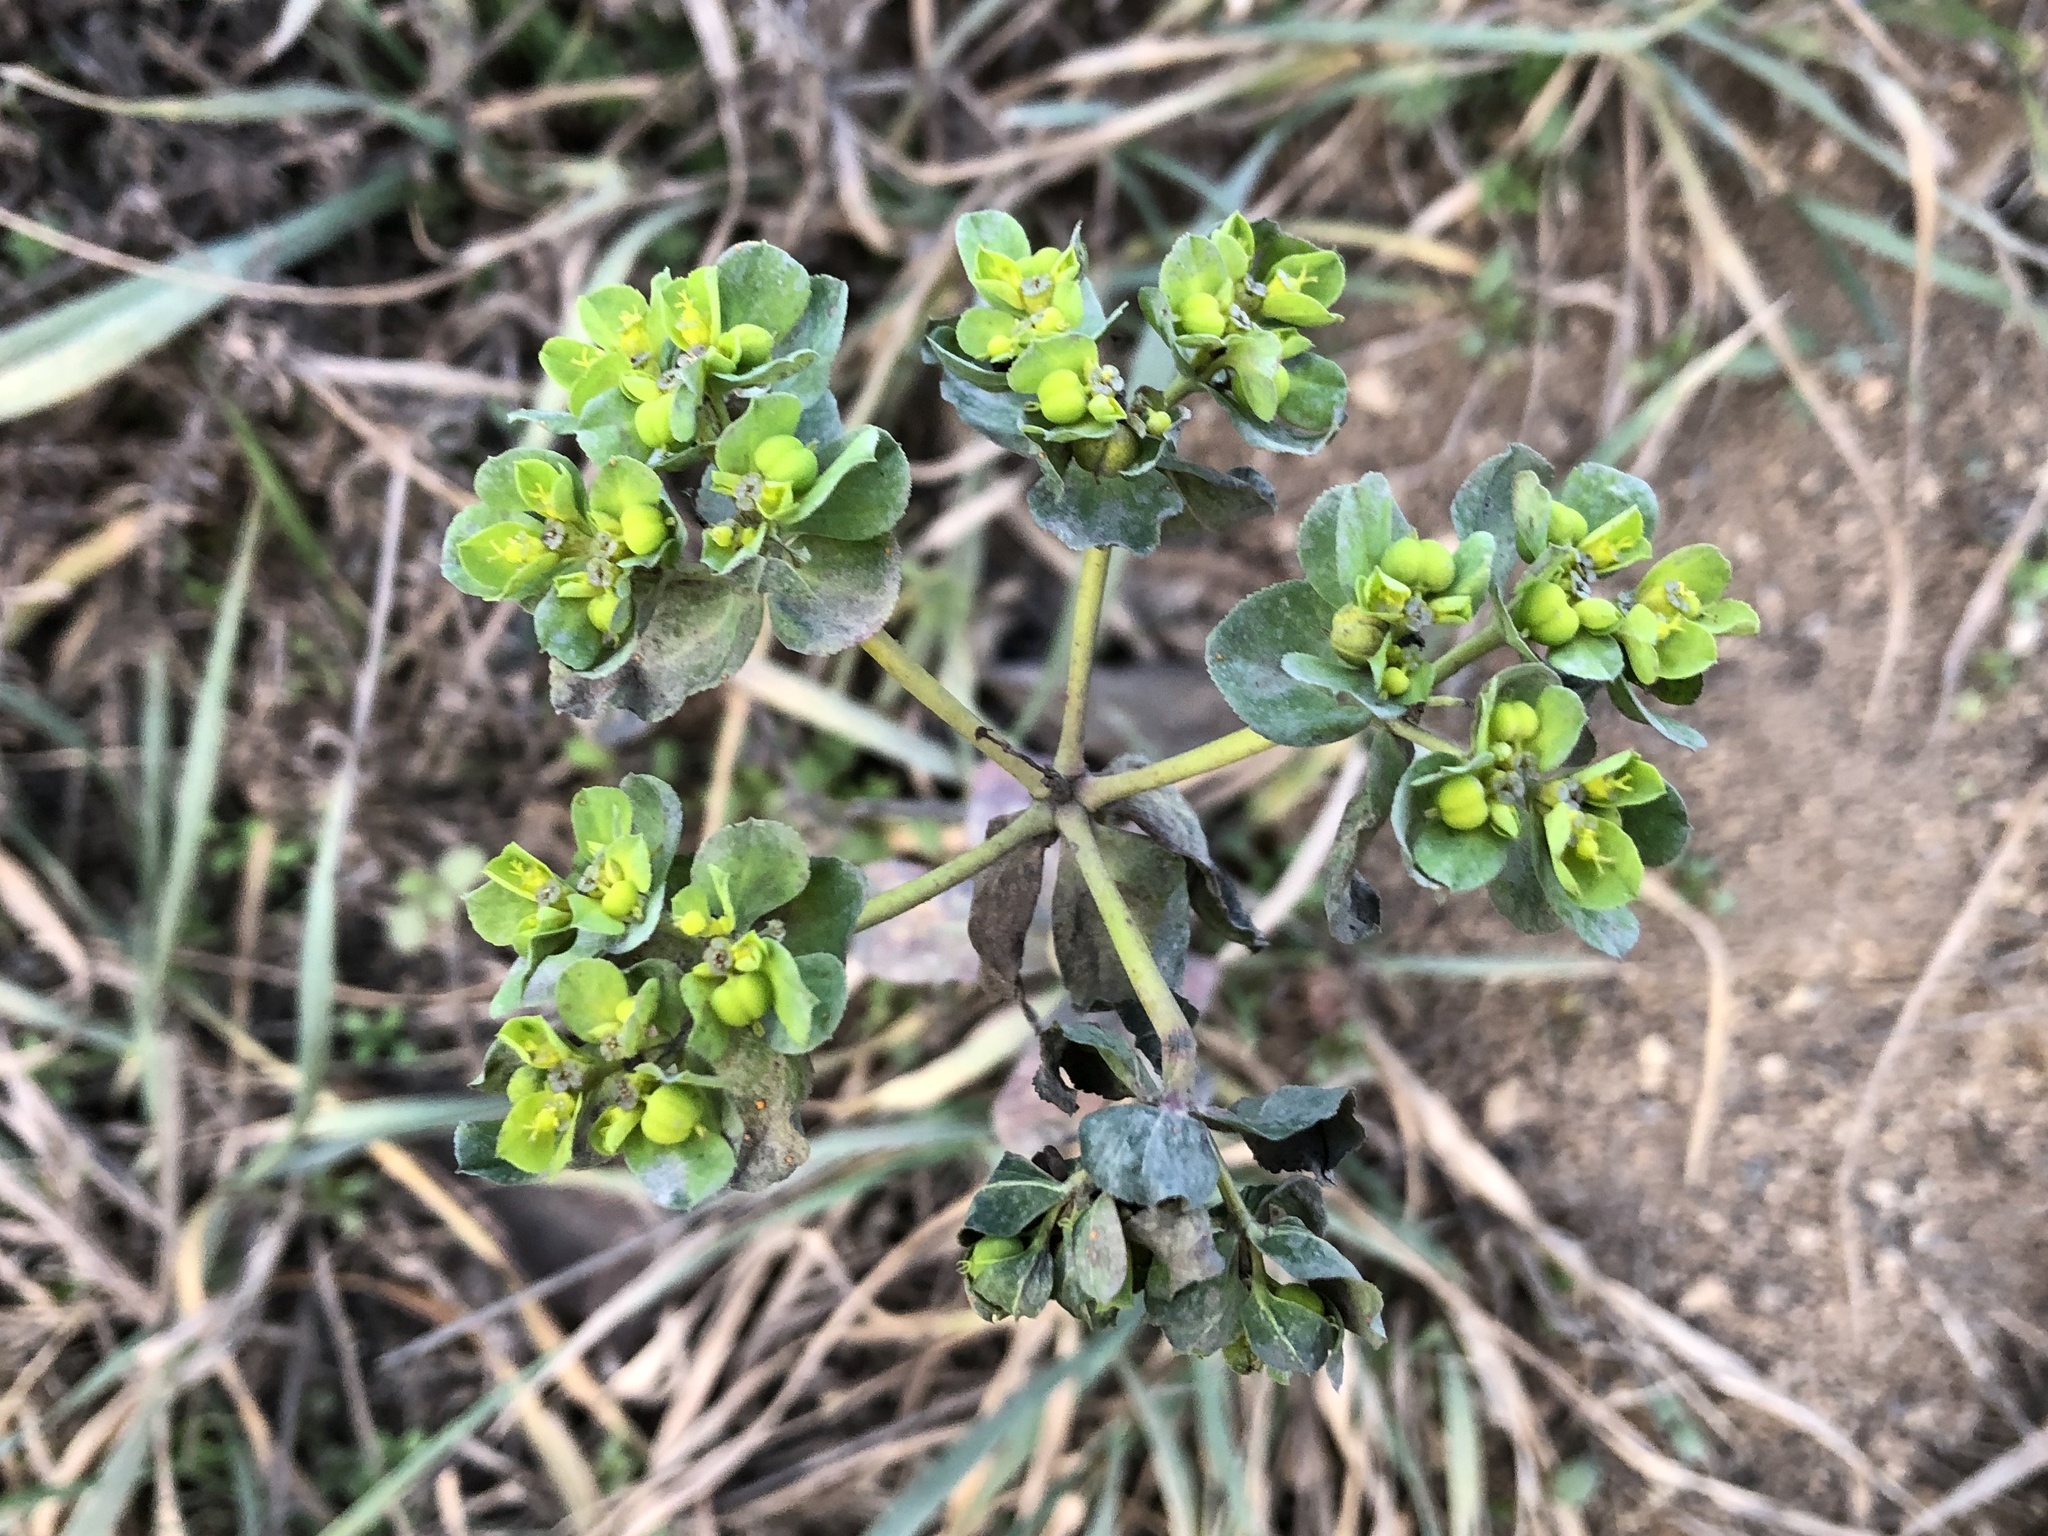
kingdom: Plantae
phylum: Tracheophyta
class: Magnoliopsida
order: Malpighiales
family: Euphorbiaceae
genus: Euphorbia
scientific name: Euphorbia helioscopia
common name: Sun spurge
